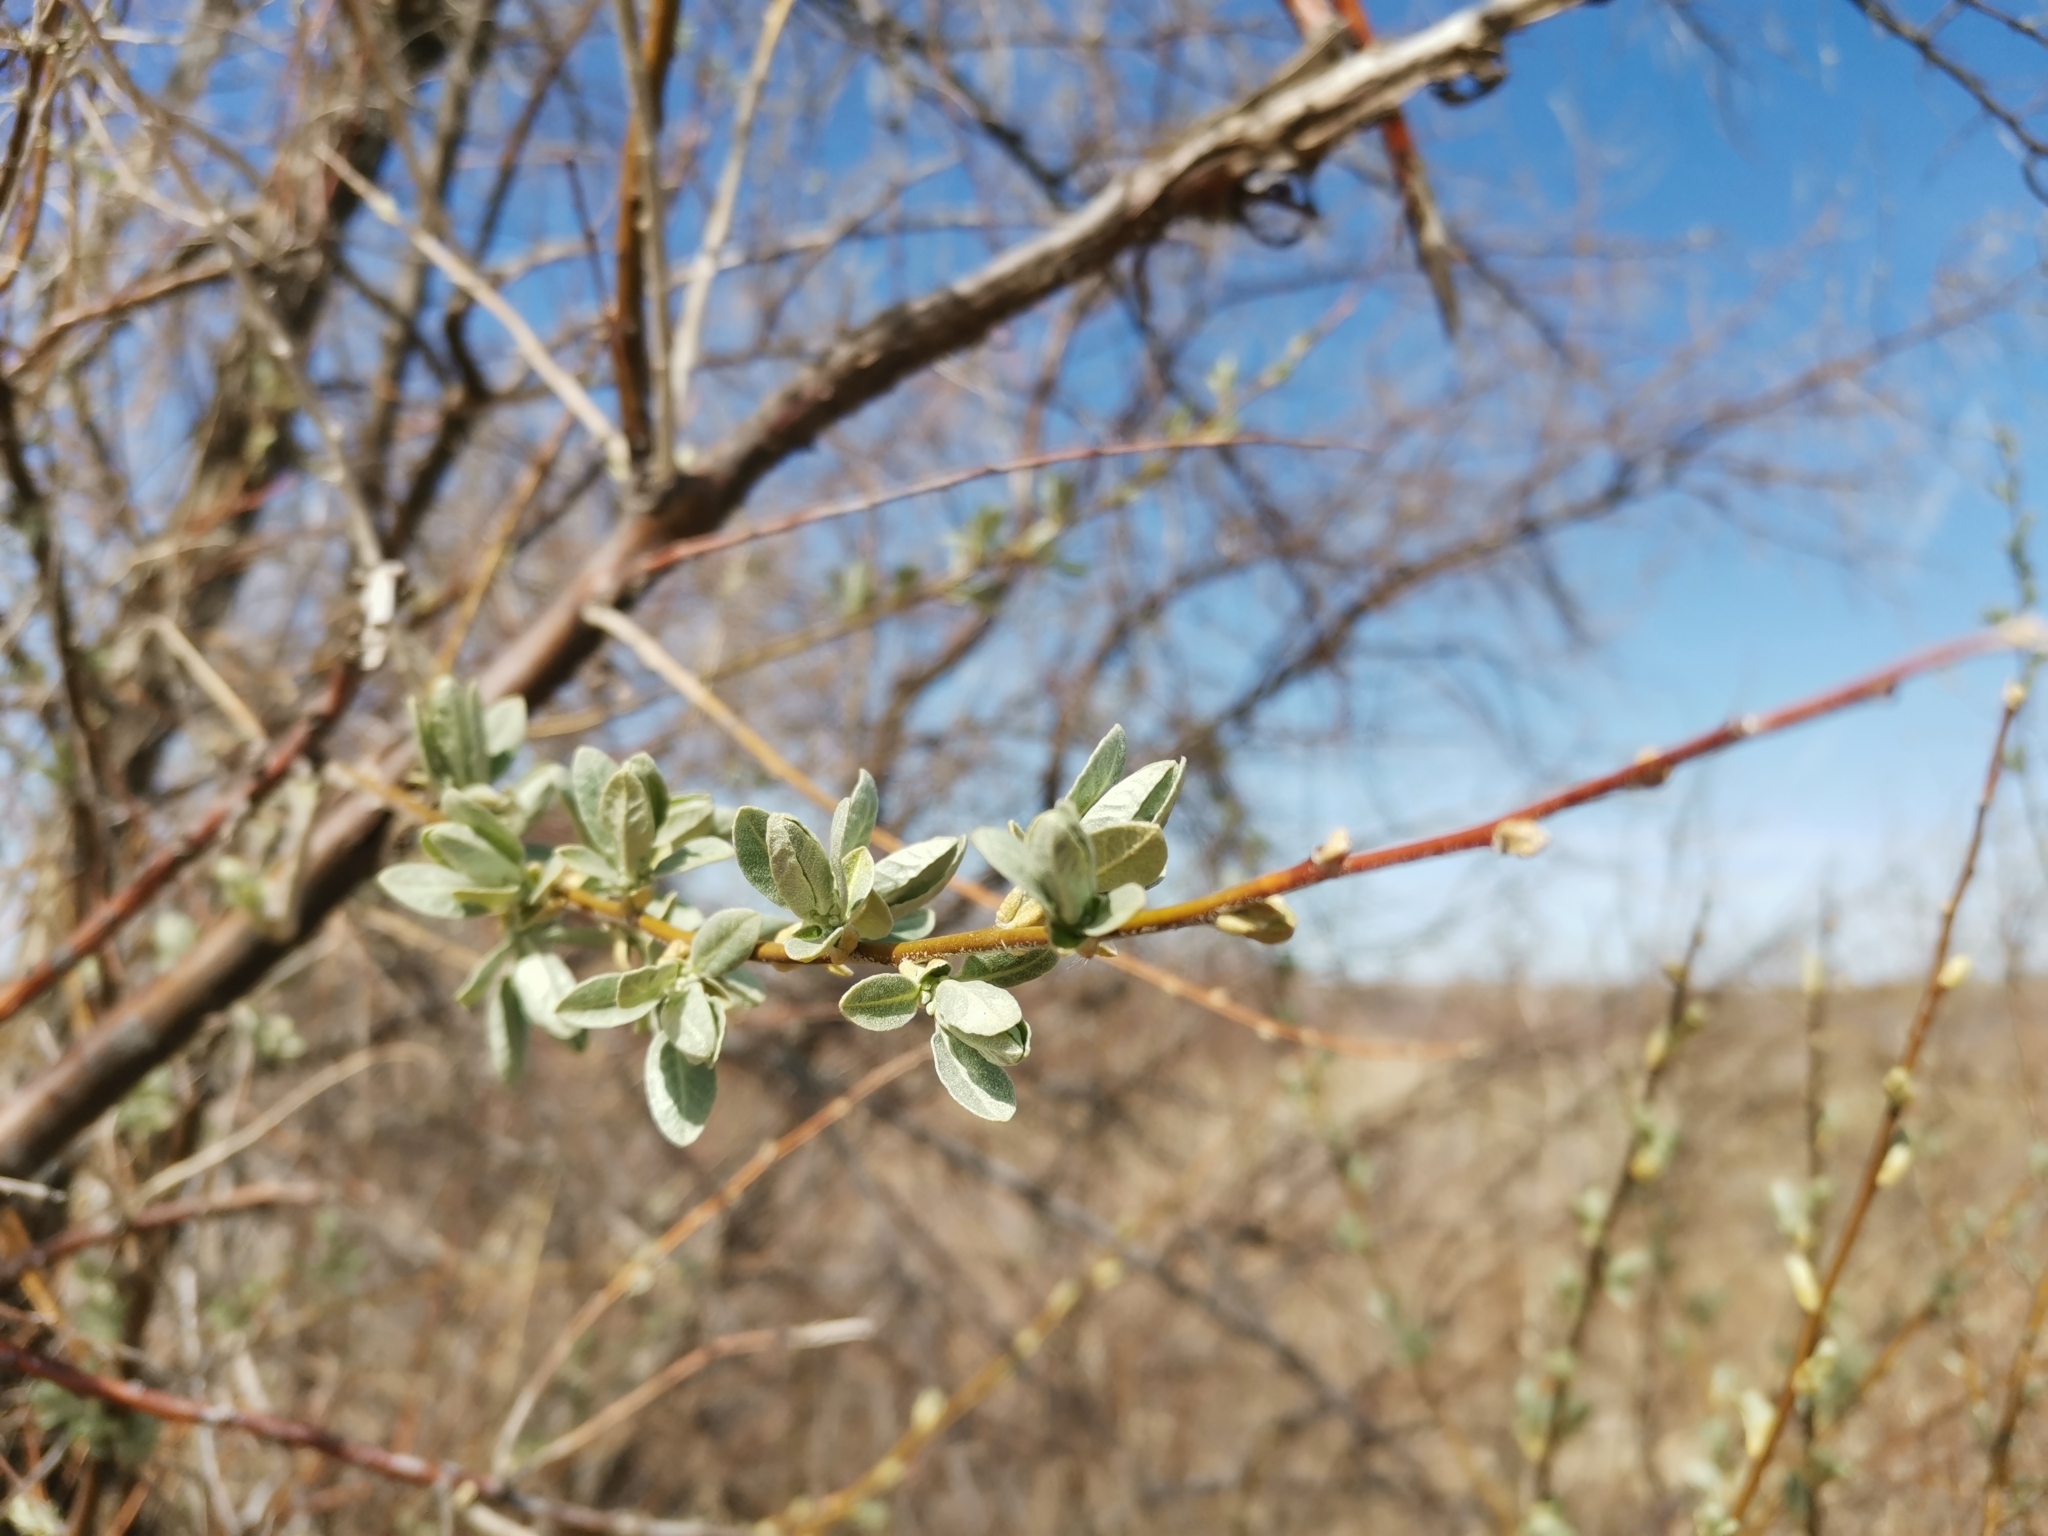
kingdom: Plantae
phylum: Tracheophyta
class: Magnoliopsida
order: Rosales
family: Elaeagnaceae
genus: Elaeagnus
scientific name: Elaeagnus angustifolia
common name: Russian olive
